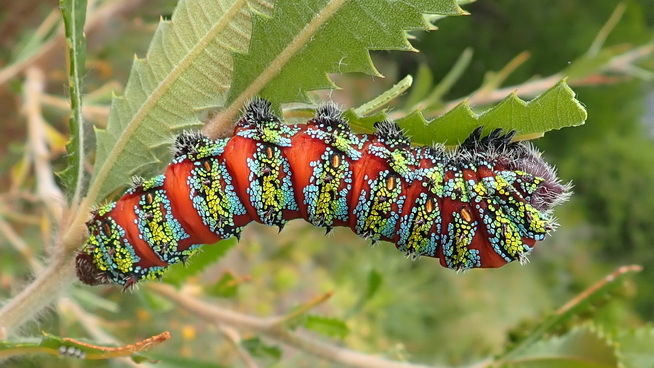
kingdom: Animalia
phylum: Arthropoda
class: Insecta
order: Lepidoptera
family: Saturniidae
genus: Nudaurelia
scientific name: Nudaurelia cytherea
